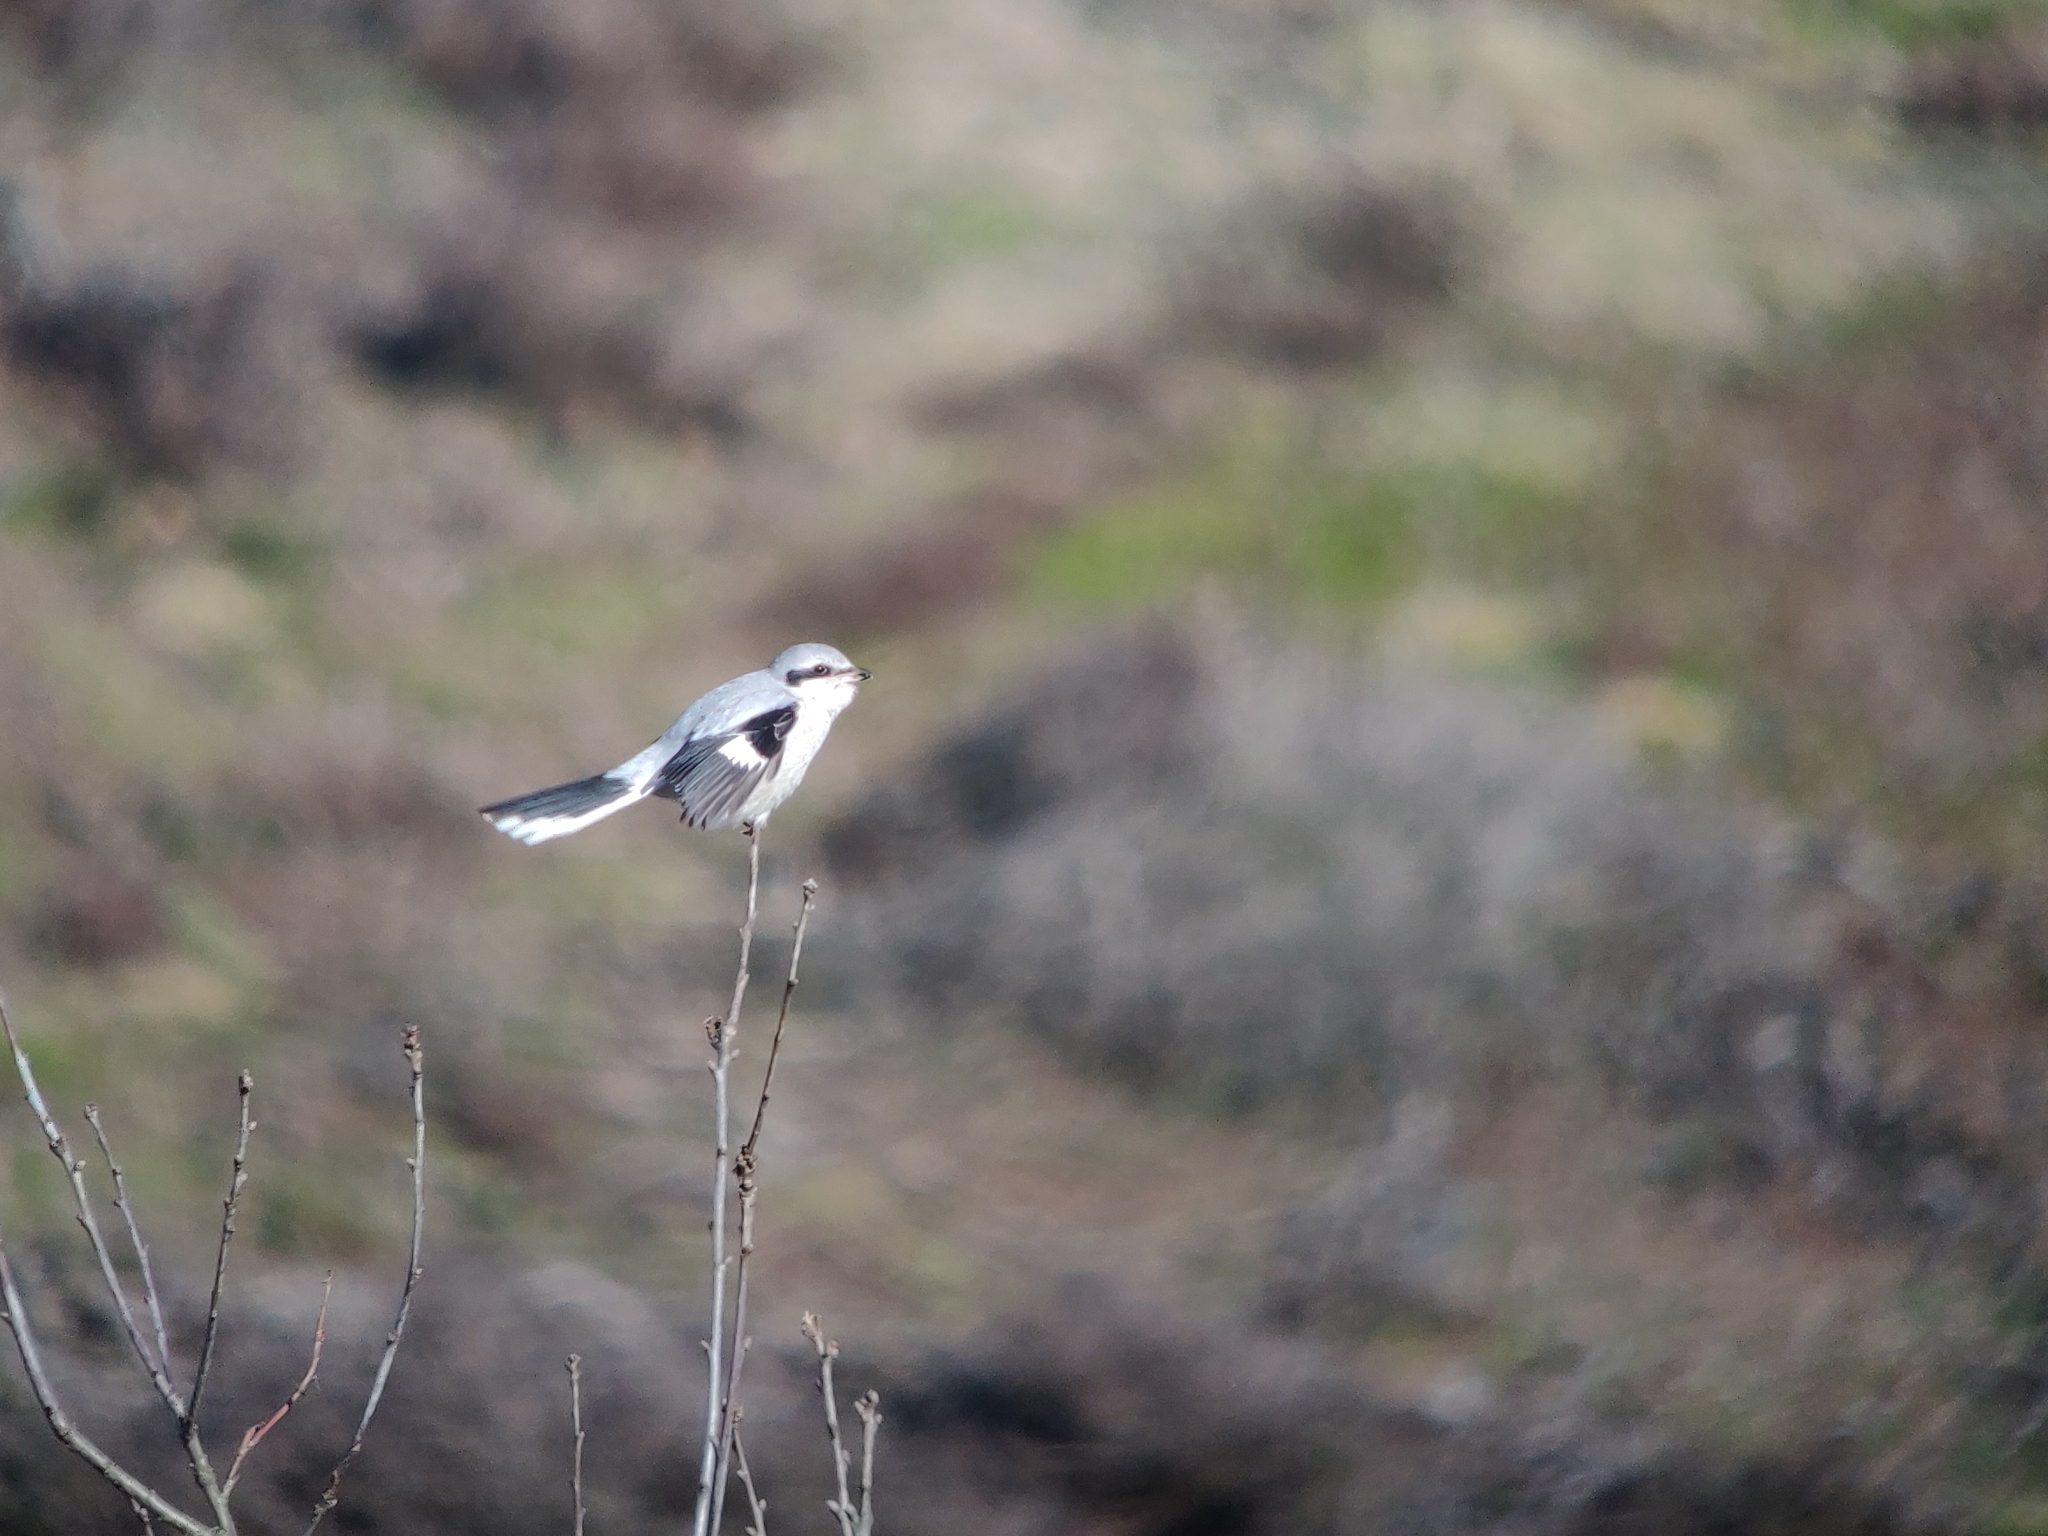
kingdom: Animalia
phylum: Chordata
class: Aves
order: Passeriformes
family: Laniidae
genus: Lanius
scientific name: Lanius excubitor
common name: Great grey shrike
